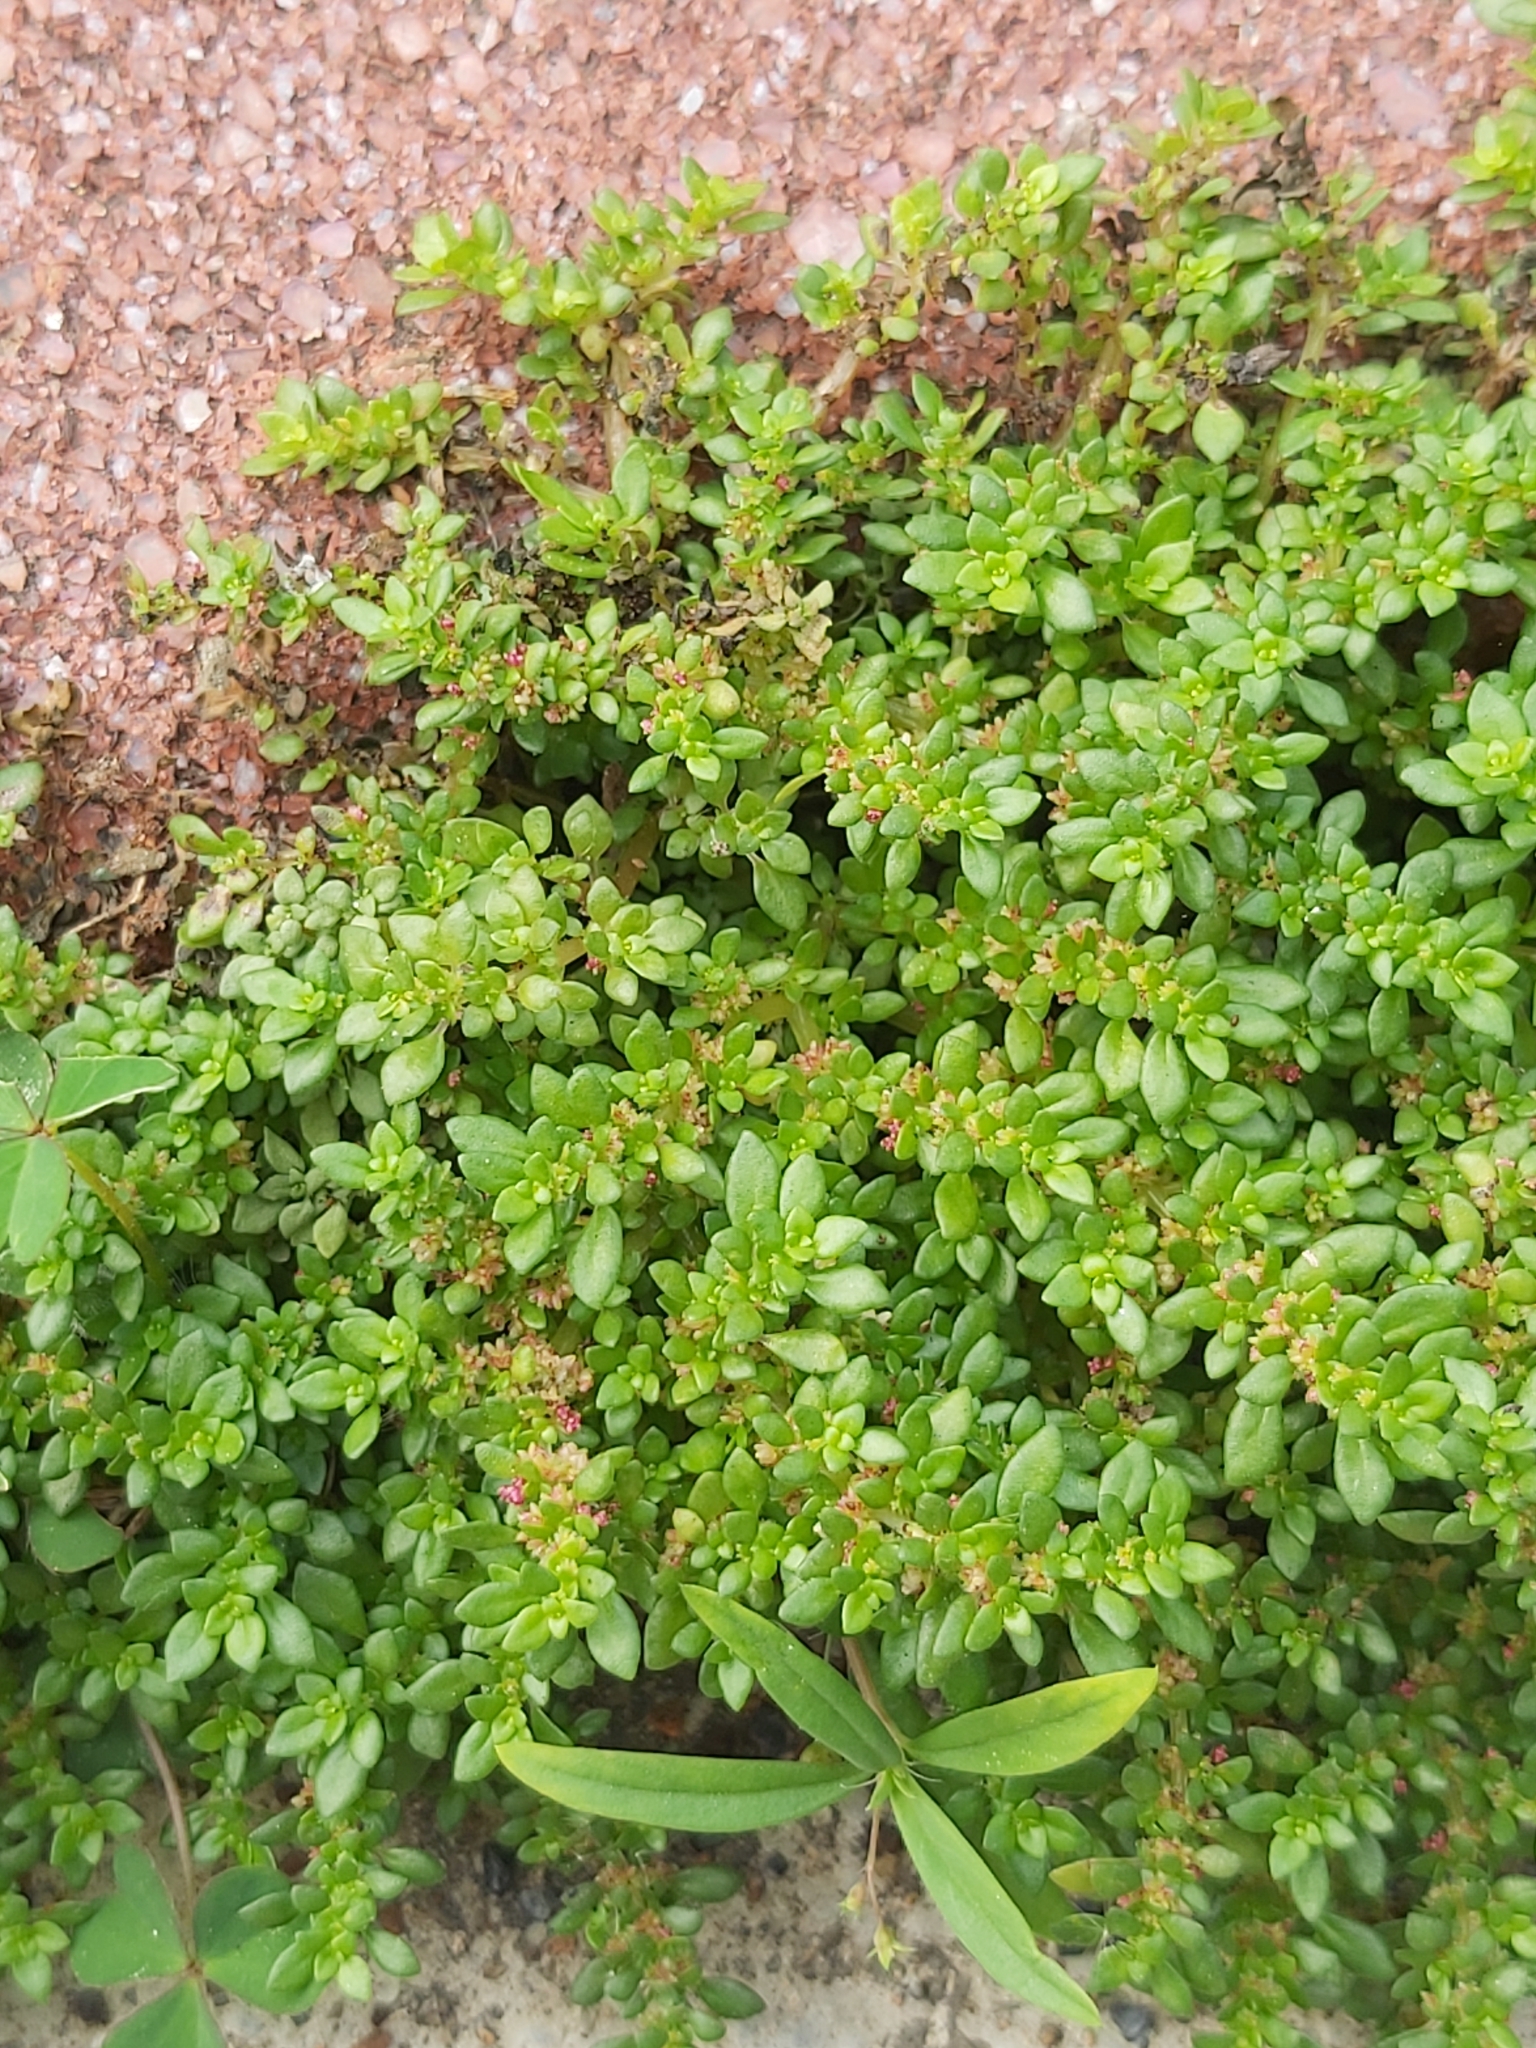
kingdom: Plantae
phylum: Tracheophyta
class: Magnoliopsida
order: Rosales
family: Urticaceae
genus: Pilea
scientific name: Pilea microphylla
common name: Artillery-plant
